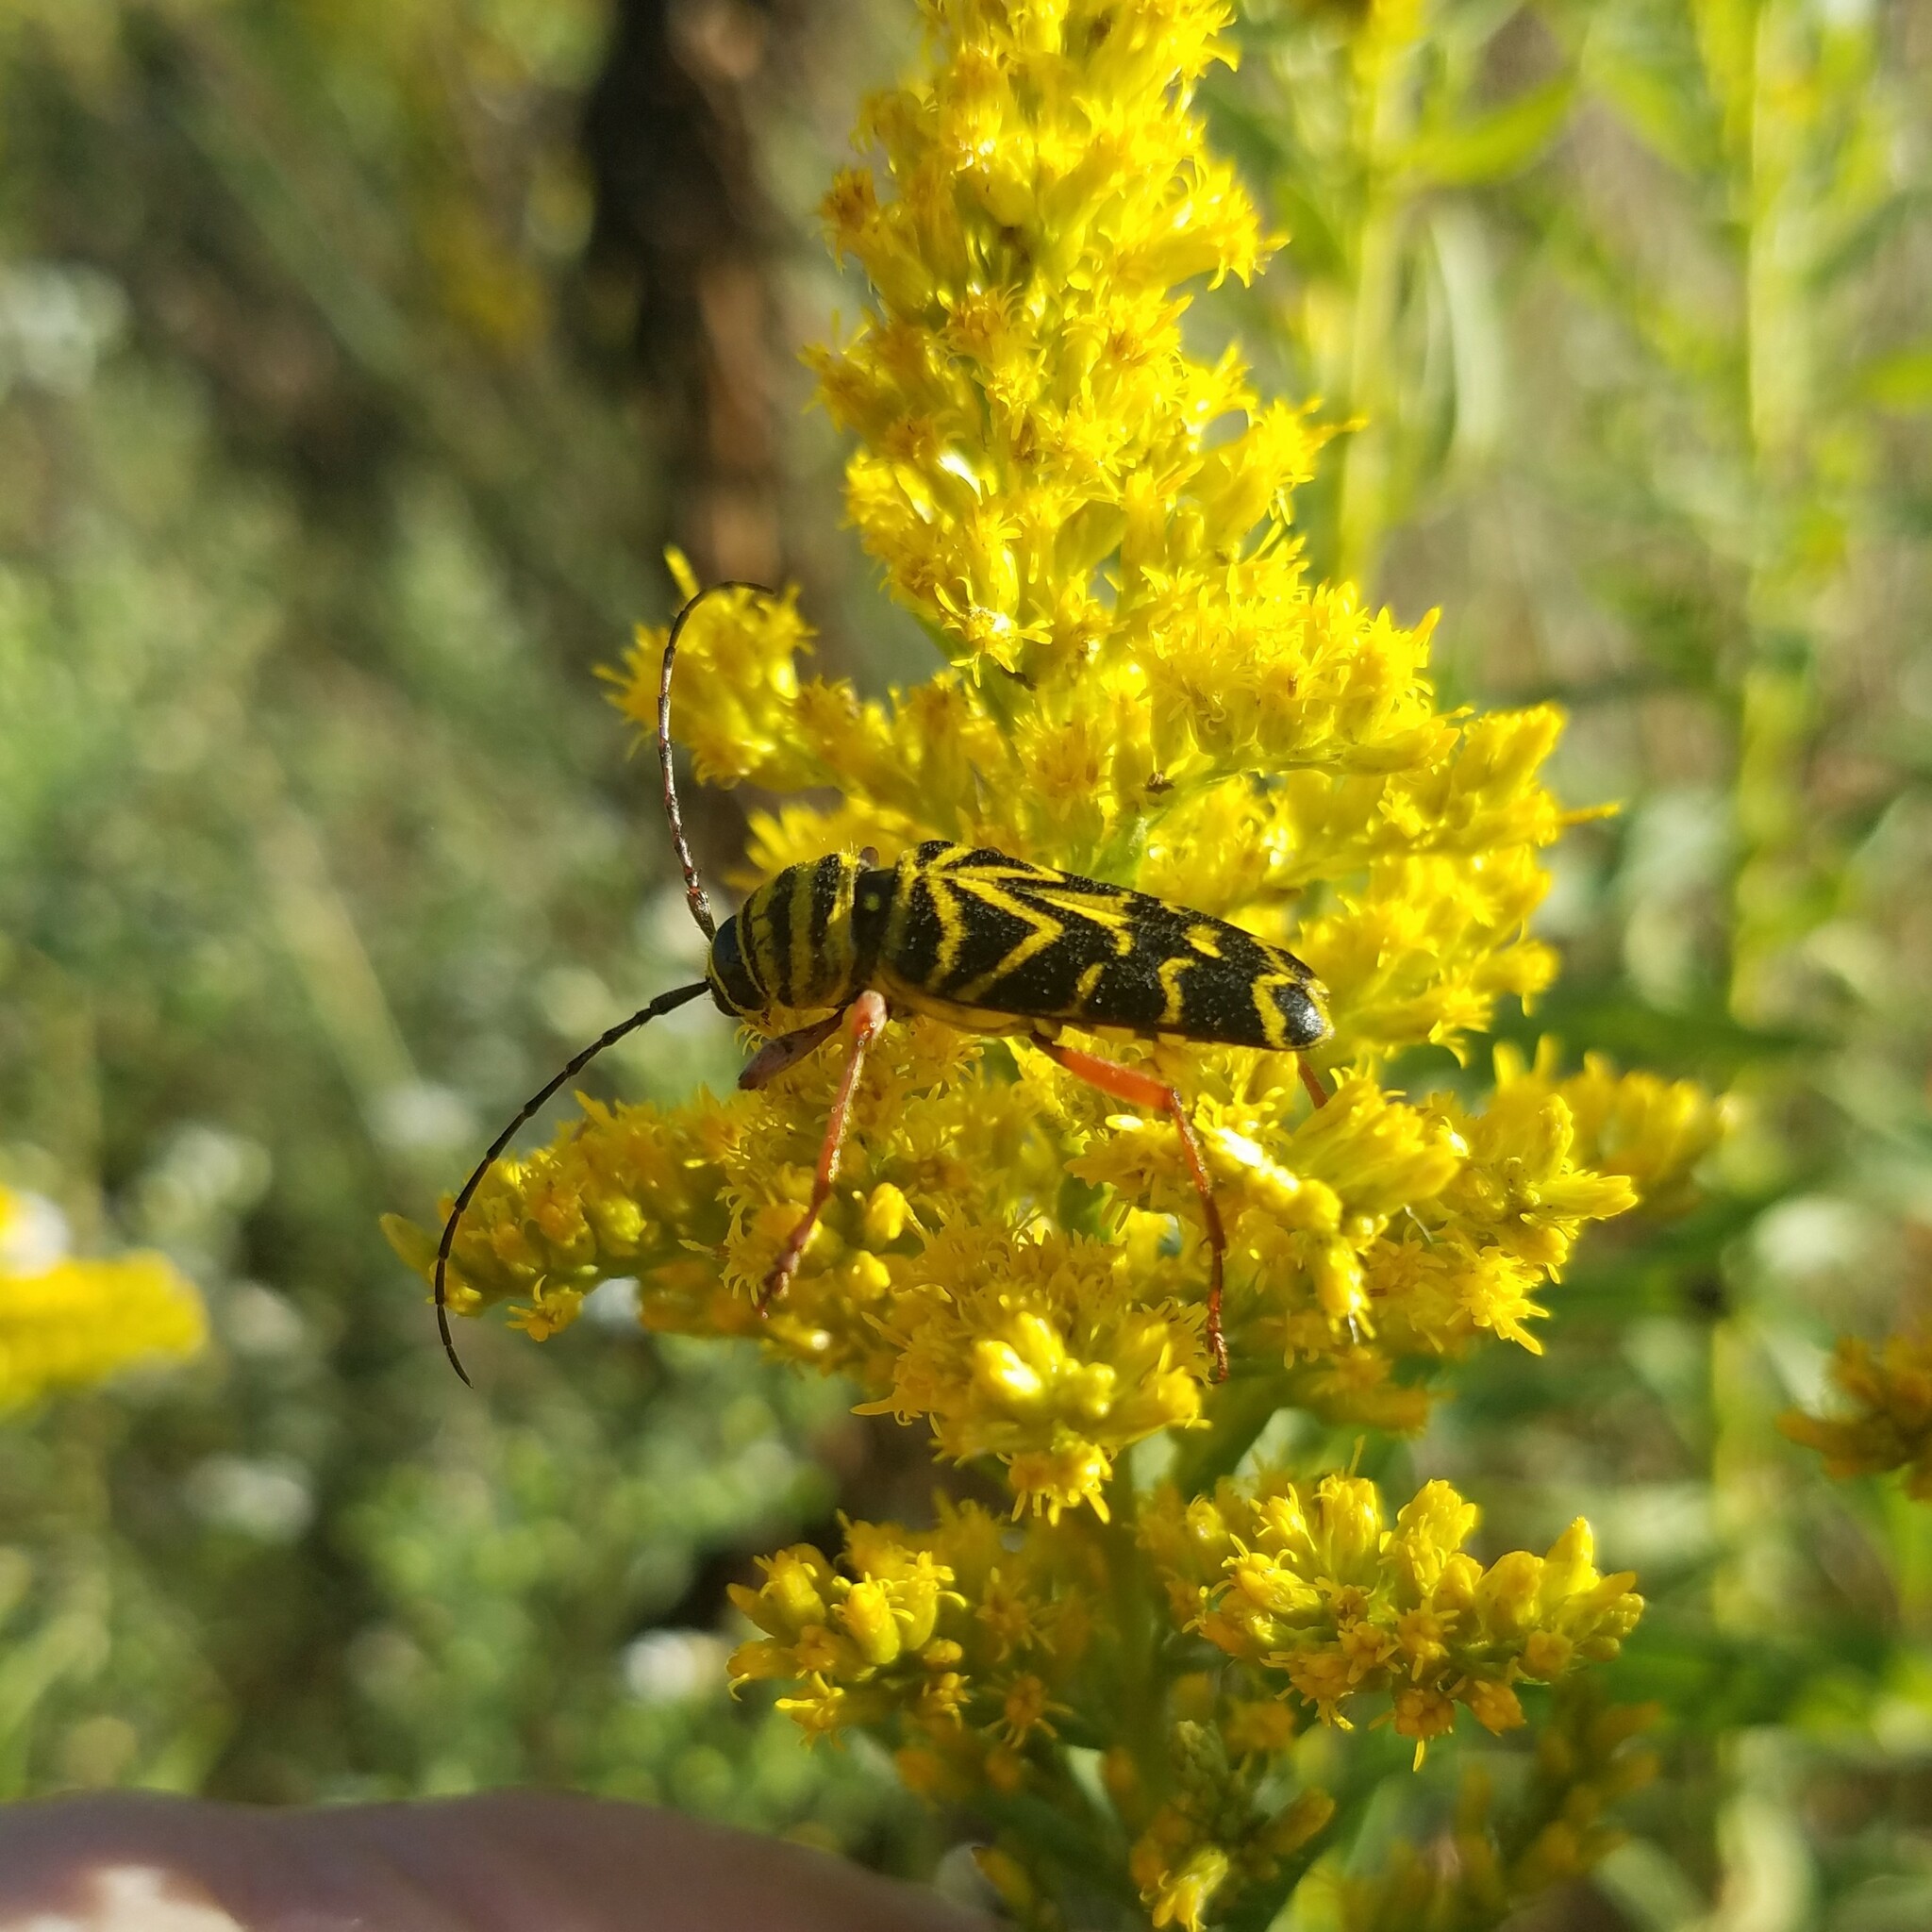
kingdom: Animalia
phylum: Arthropoda
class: Insecta
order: Coleoptera
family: Cerambycidae
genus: Megacyllene
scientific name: Megacyllene robiniae
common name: Locust borer
